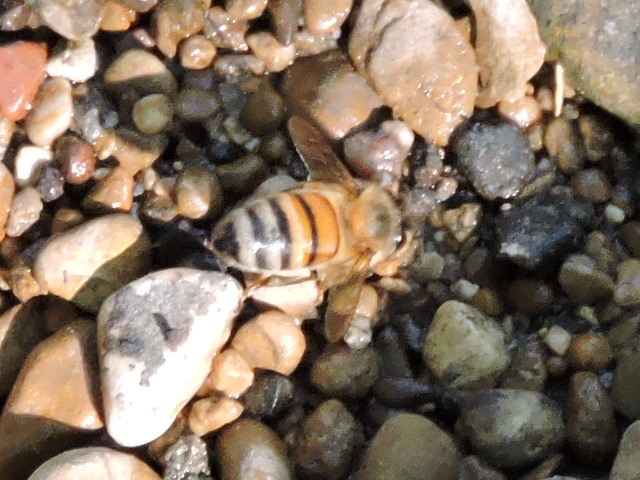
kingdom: Animalia
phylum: Arthropoda
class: Insecta
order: Hymenoptera
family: Apidae
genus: Apis
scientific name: Apis mellifera
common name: Honey bee
